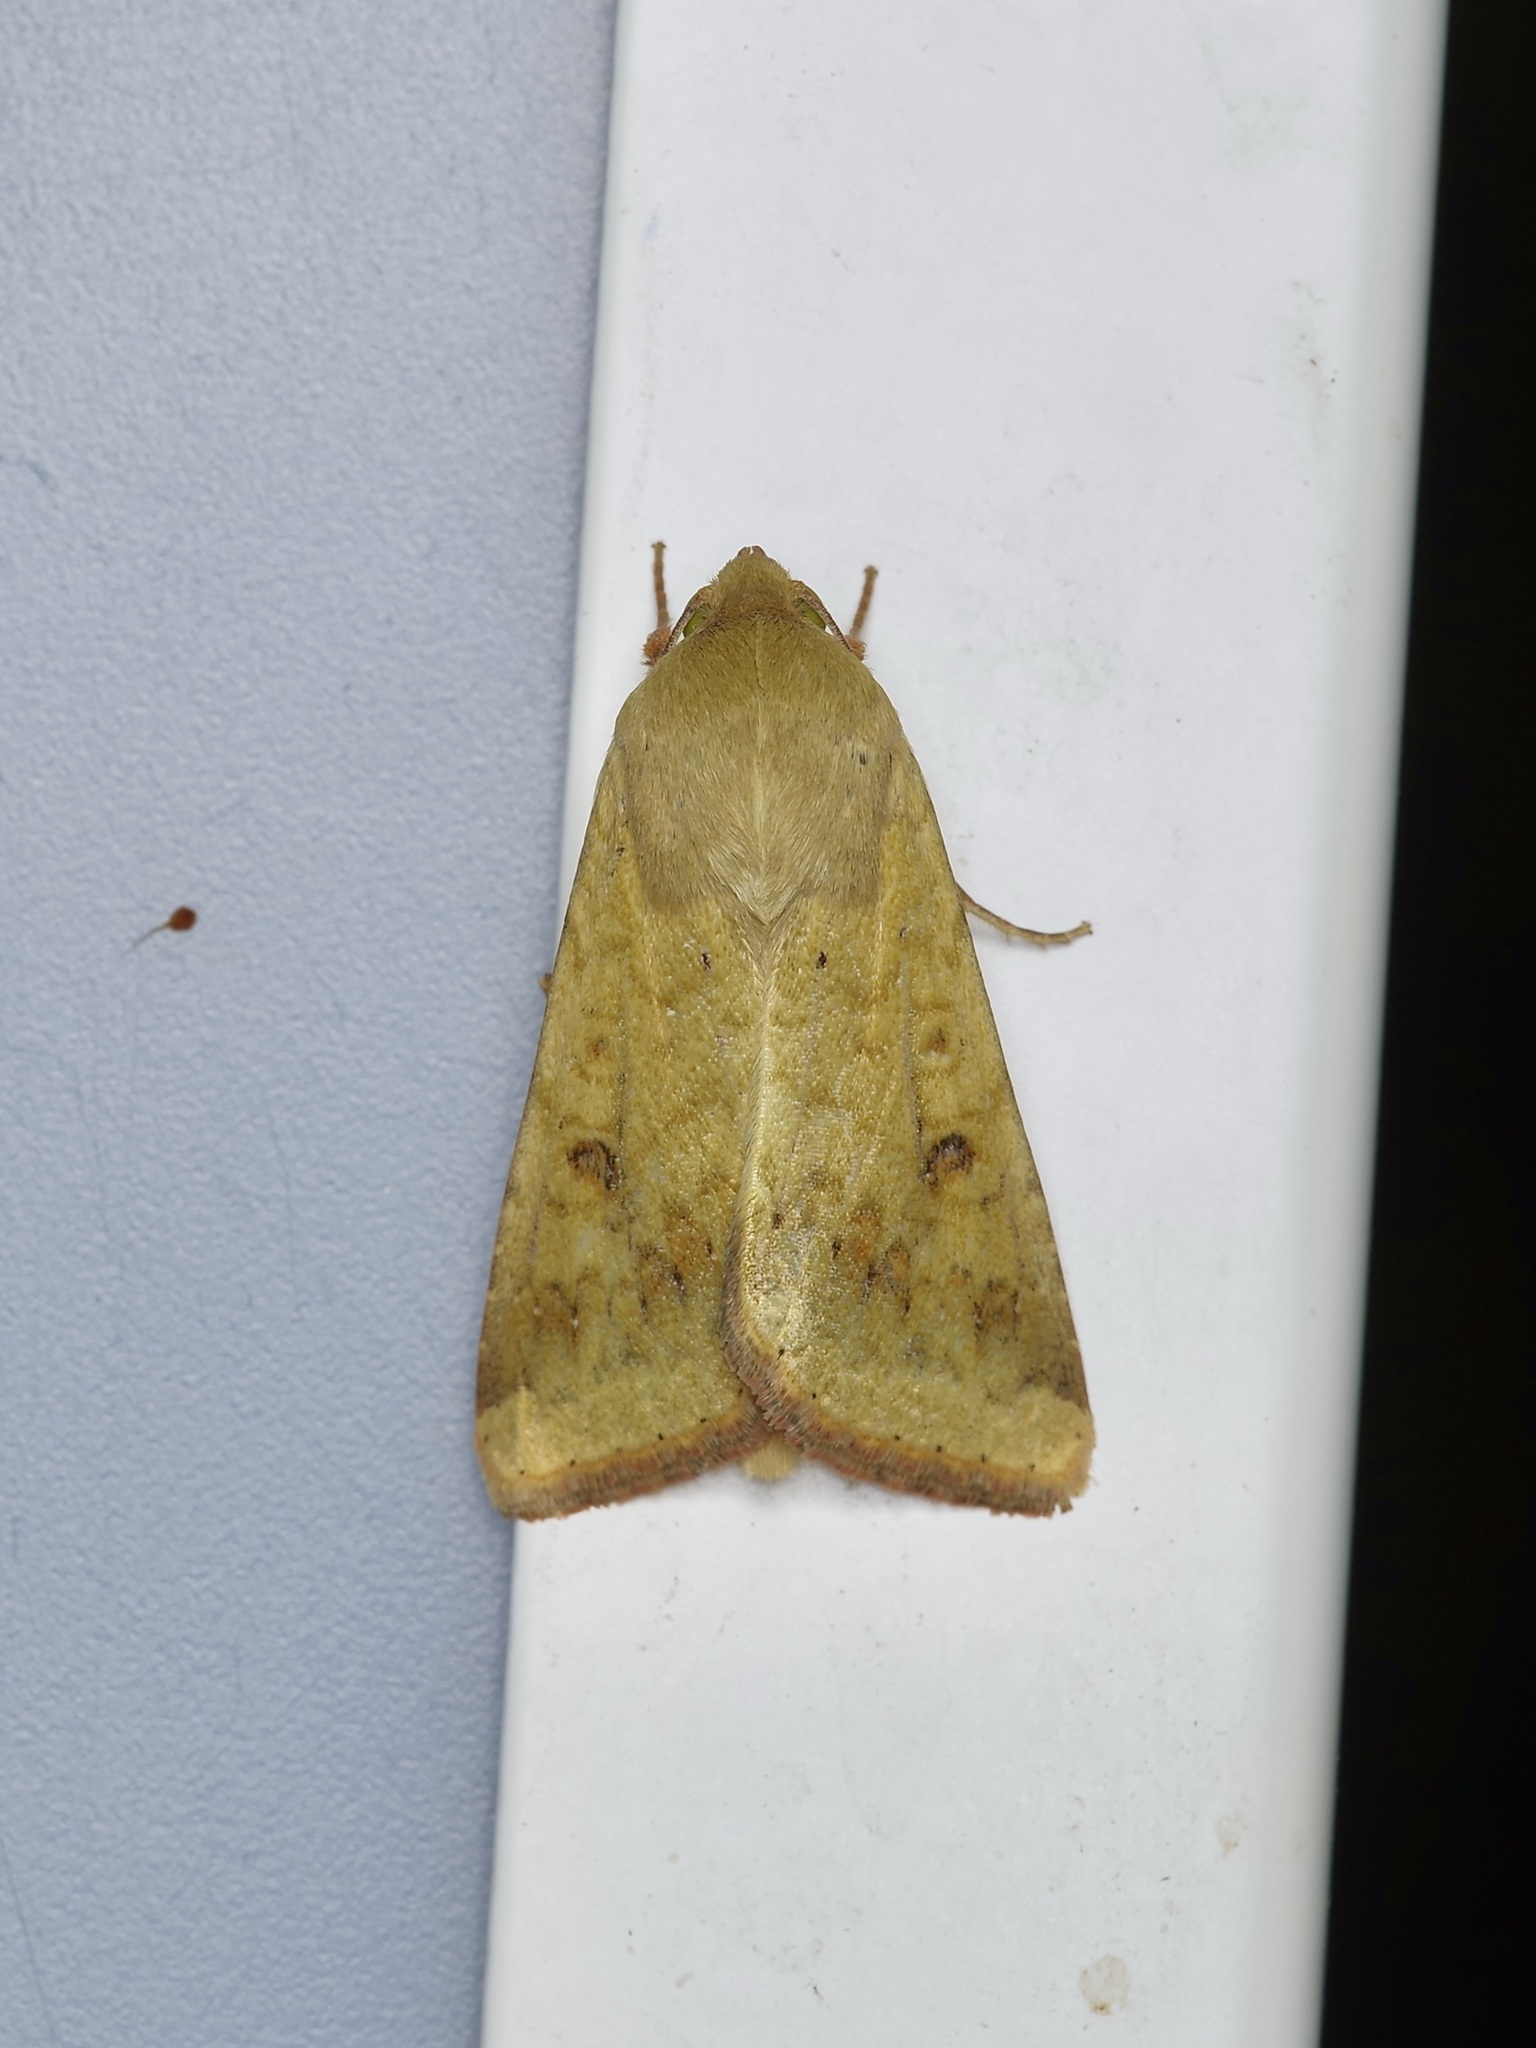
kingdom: Animalia
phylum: Arthropoda
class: Insecta
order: Lepidoptera
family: Noctuidae
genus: Helicoverpa
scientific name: Helicoverpa zea
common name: Bollworm
